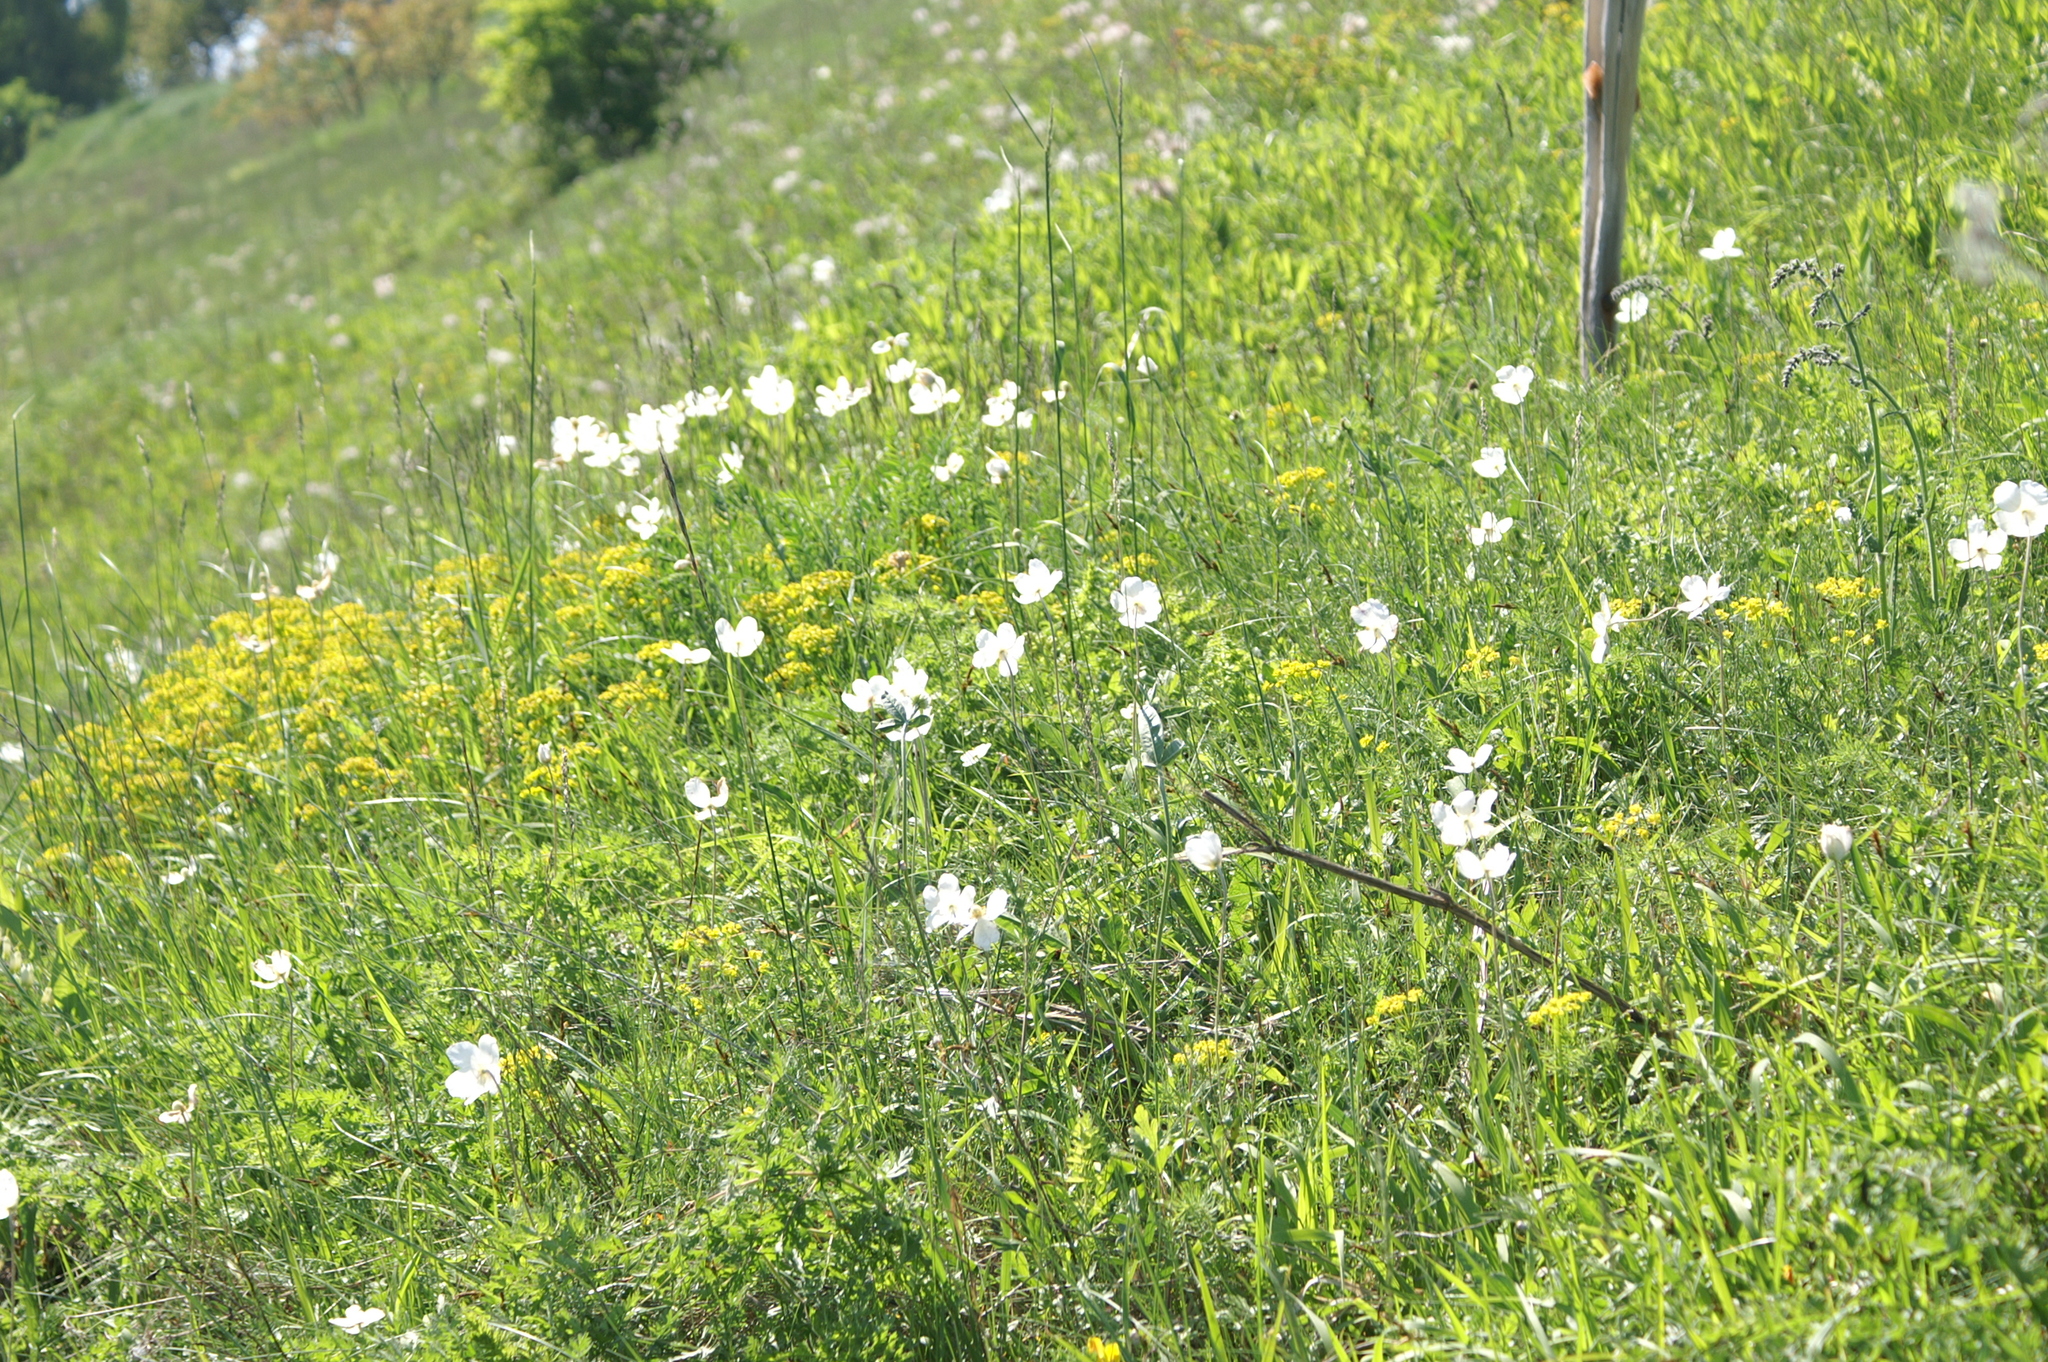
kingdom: Plantae
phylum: Tracheophyta
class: Magnoliopsida
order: Ranunculales
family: Ranunculaceae
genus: Anemone
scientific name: Anemone sylvestris
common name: Snowdrop anemone
